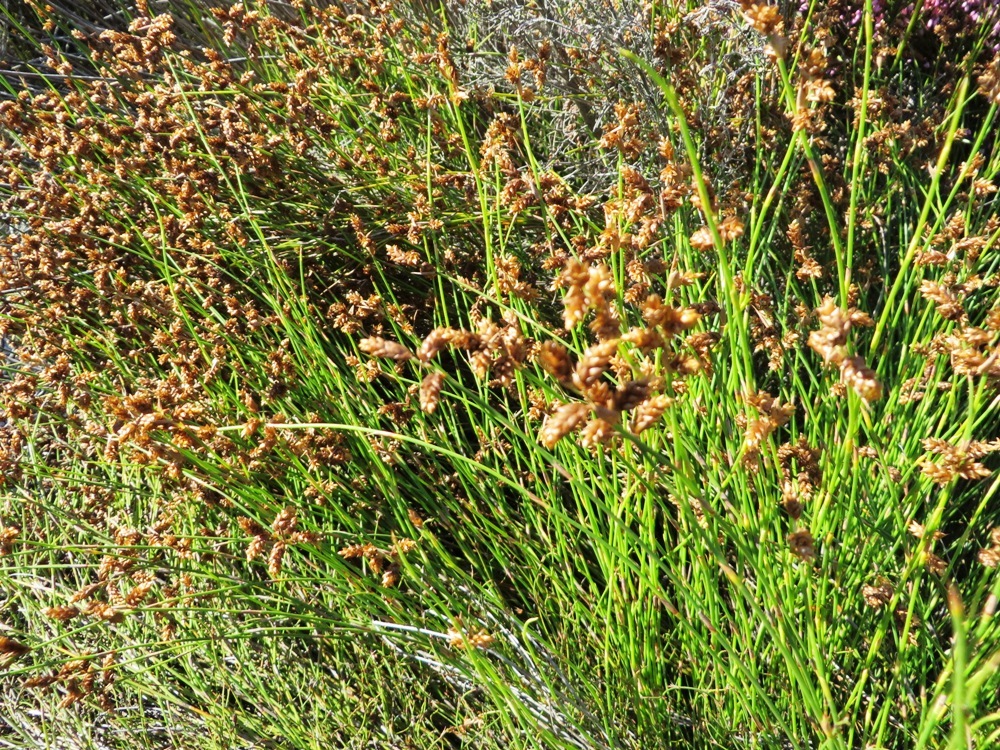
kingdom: Plantae
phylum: Tracheophyta
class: Liliopsida
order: Poales
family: Restionaceae
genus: Mastersiella
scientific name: Mastersiella digitata
